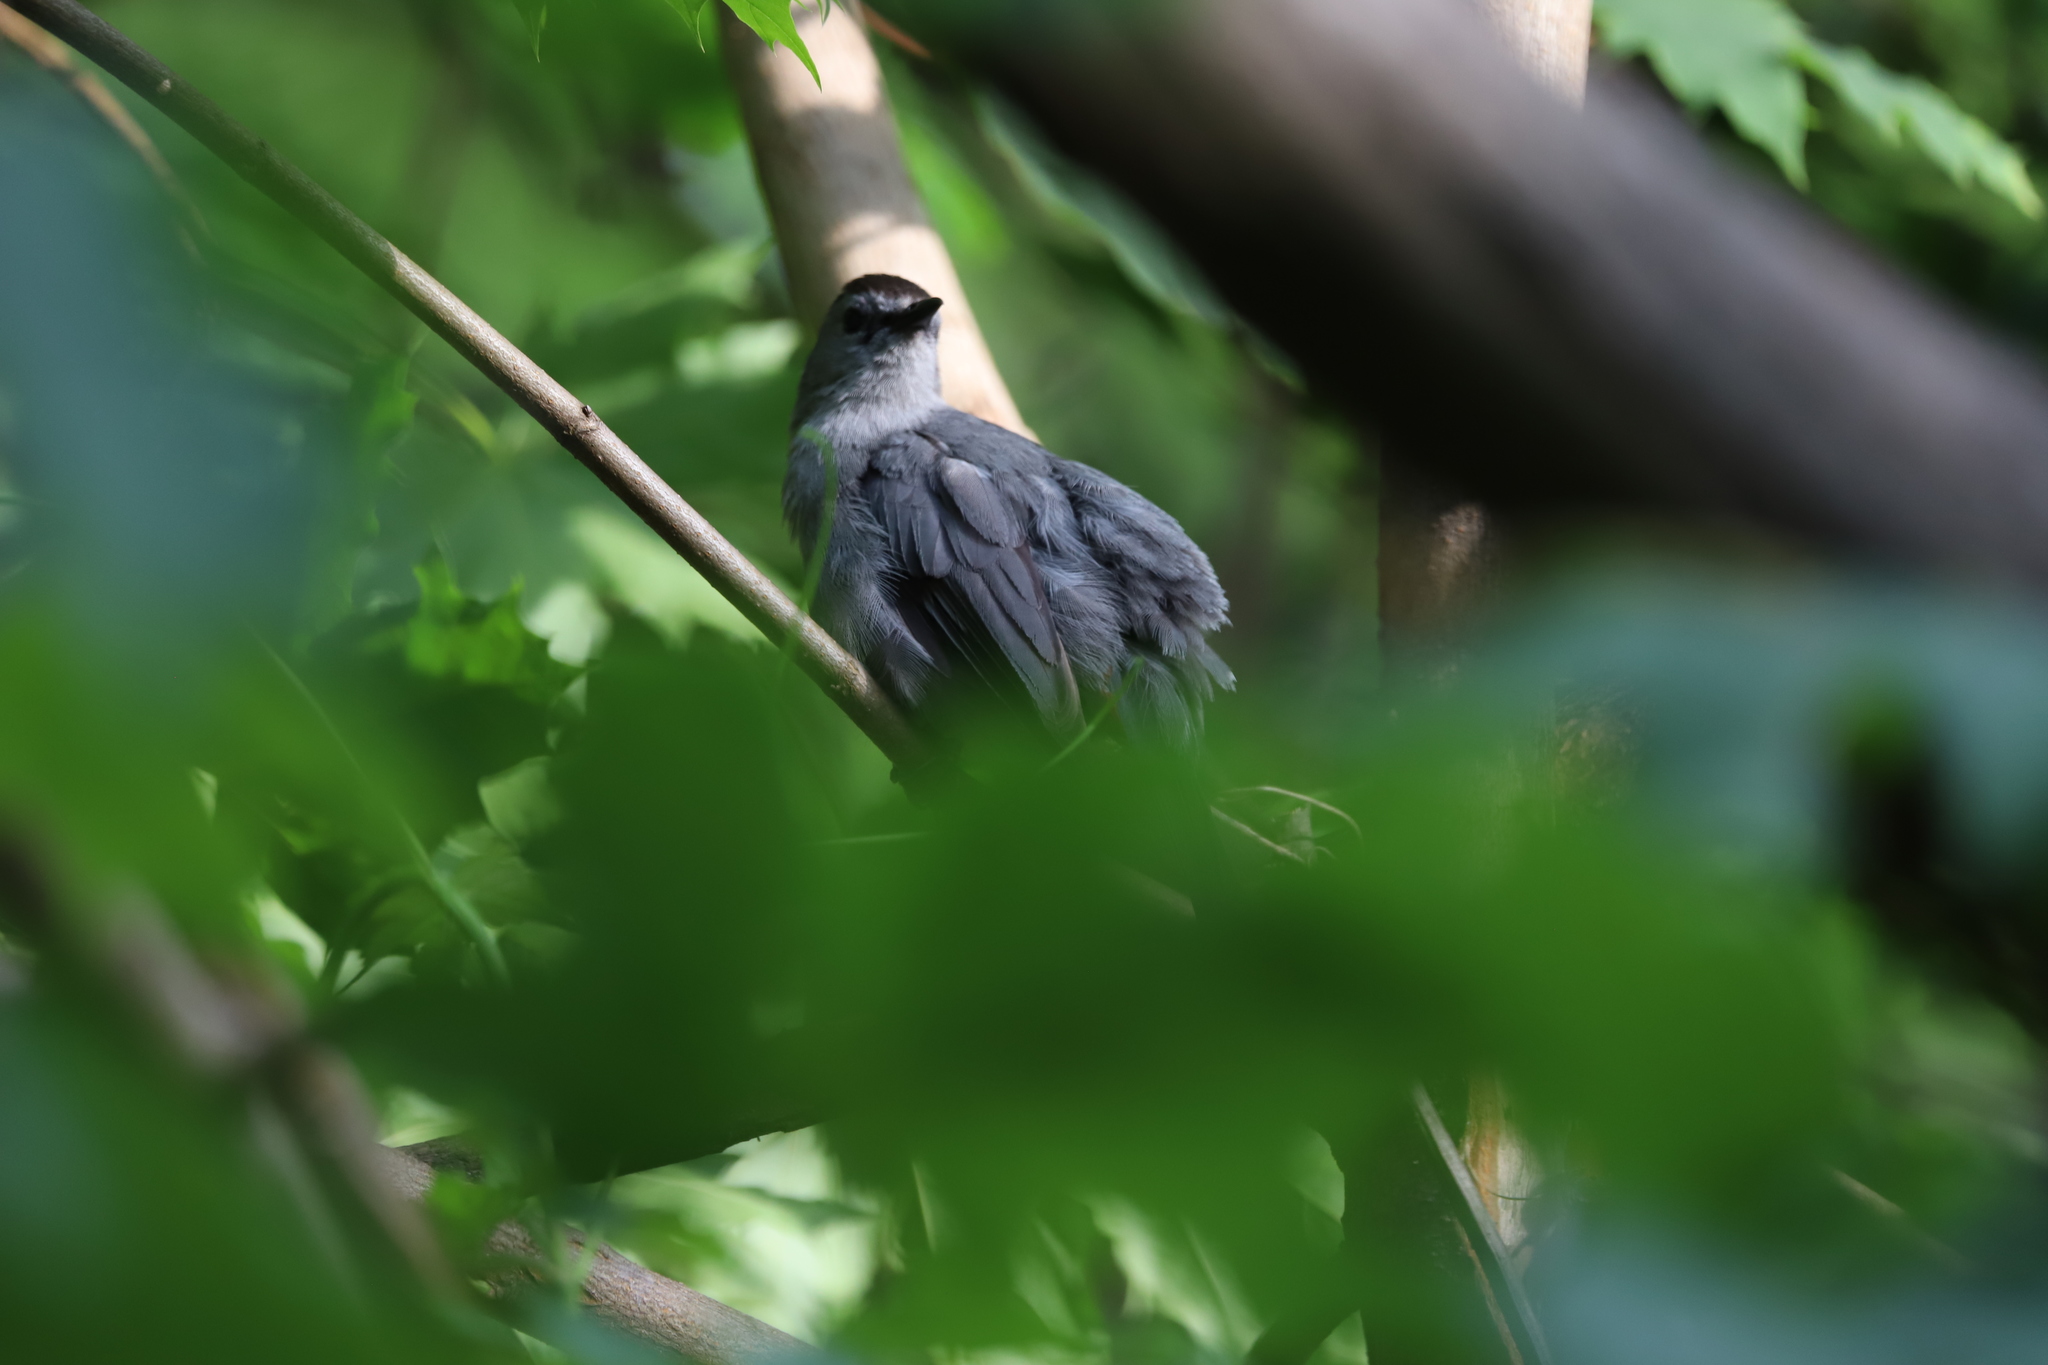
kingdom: Animalia
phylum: Chordata
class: Aves
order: Passeriformes
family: Mimidae
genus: Dumetella
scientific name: Dumetella carolinensis
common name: Gray catbird
